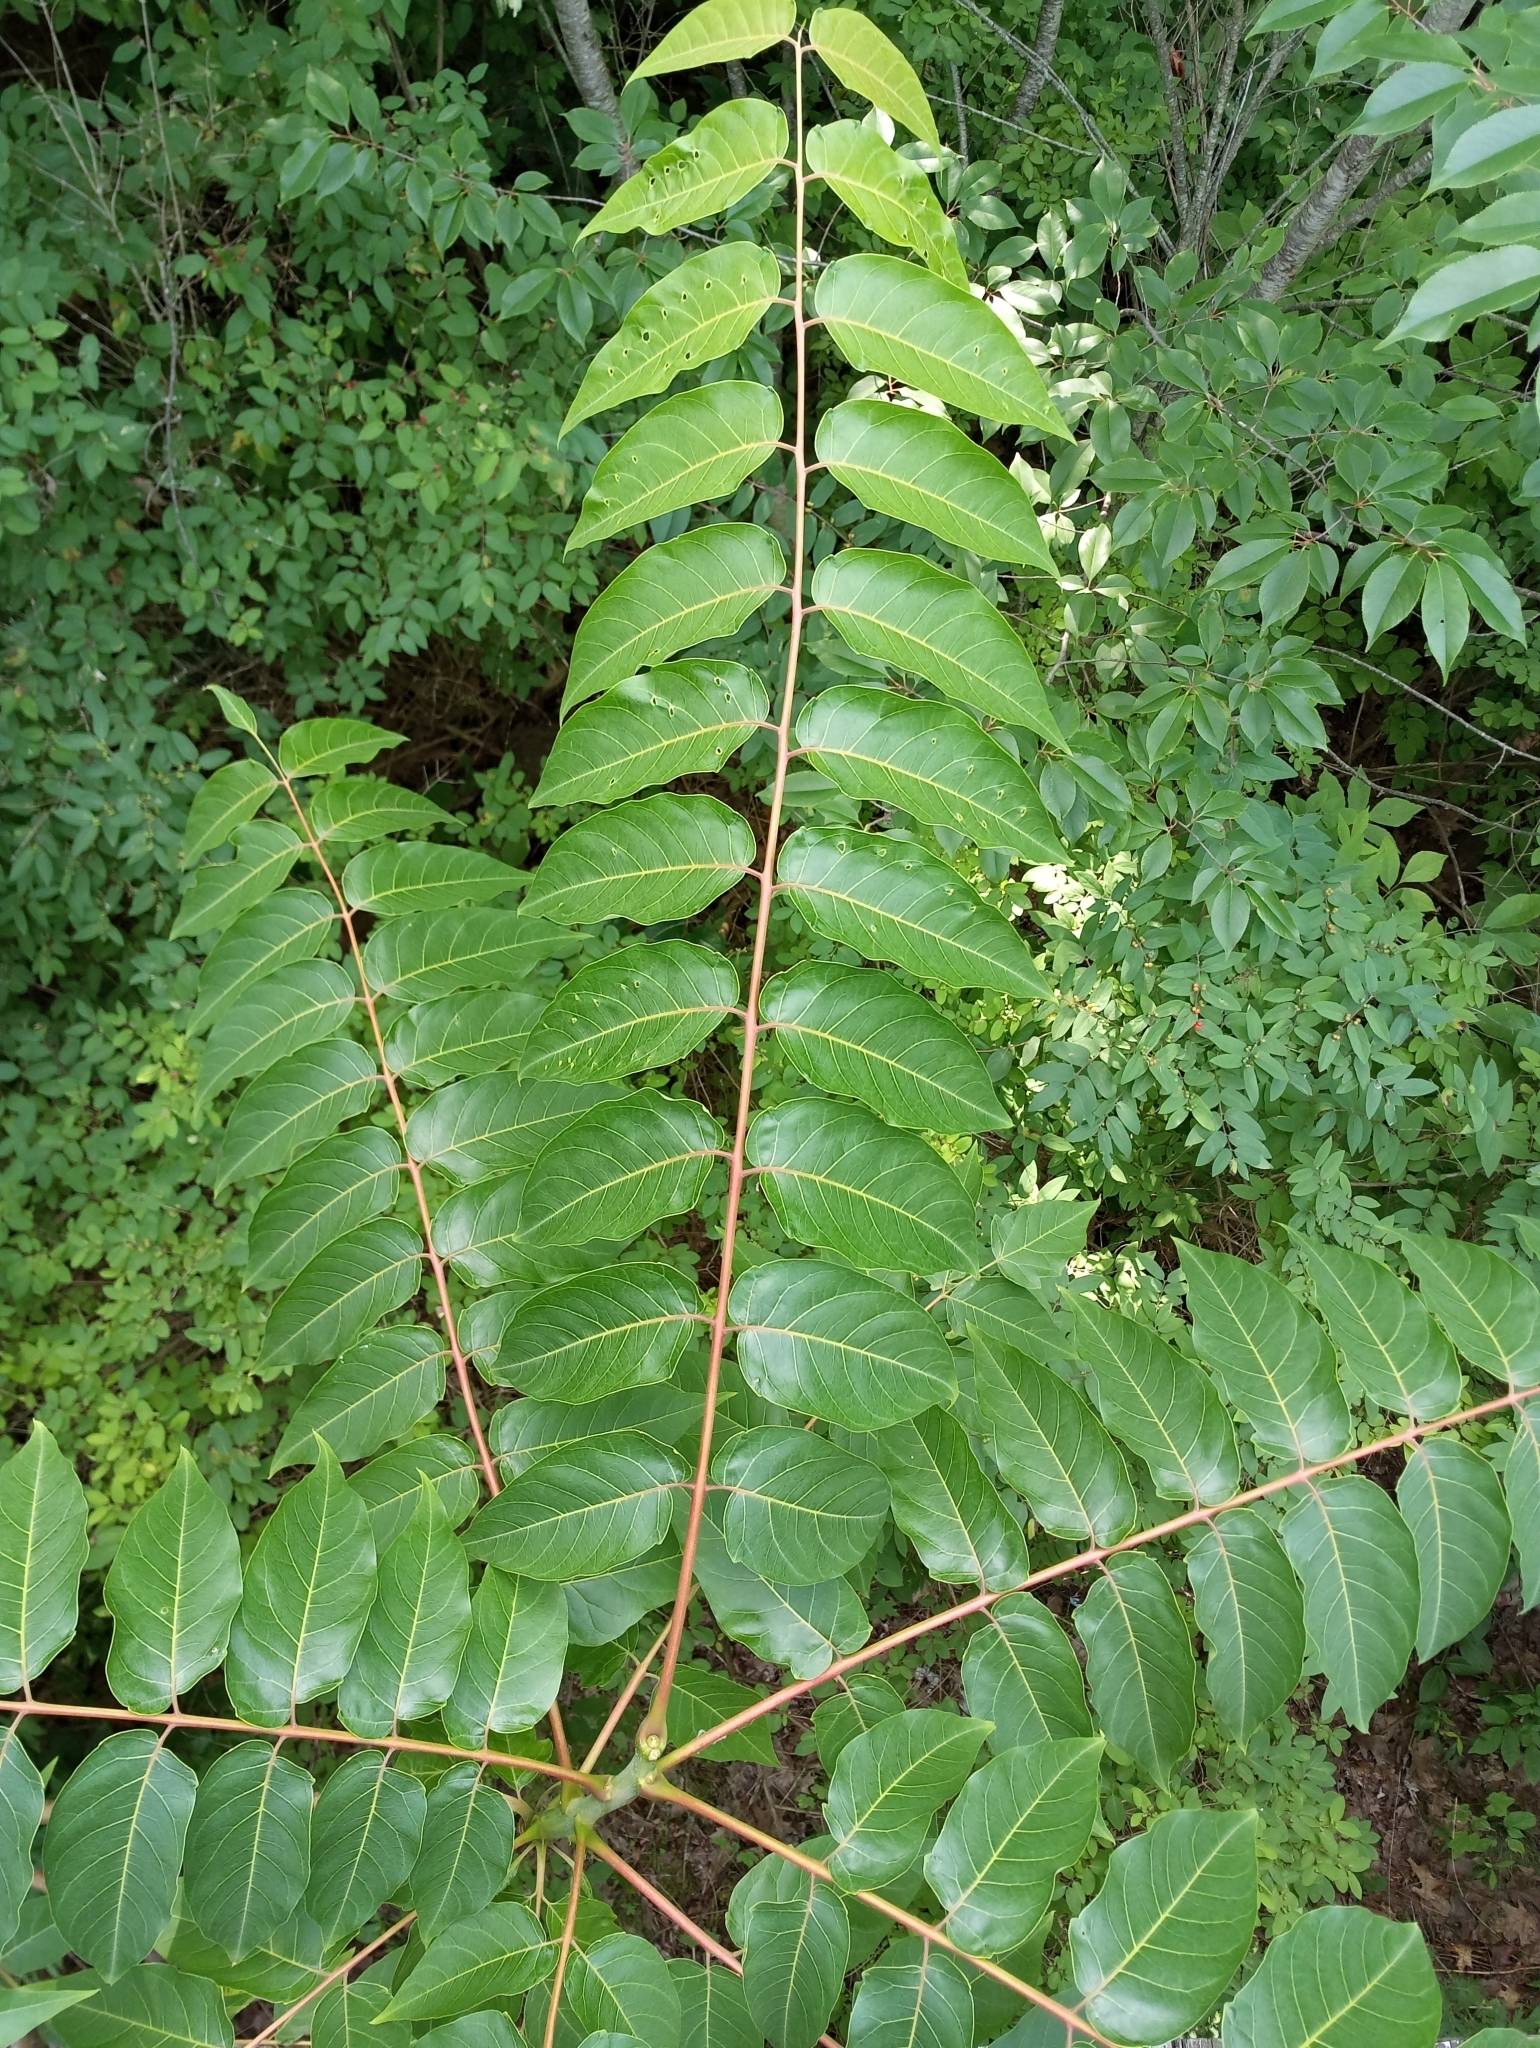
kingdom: Plantae
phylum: Tracheophyta
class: Magnoliopsida
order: Sapindales
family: Simaroubaceae
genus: Ailanthus
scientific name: Ailanthus altissima
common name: Tree-of-heaven
